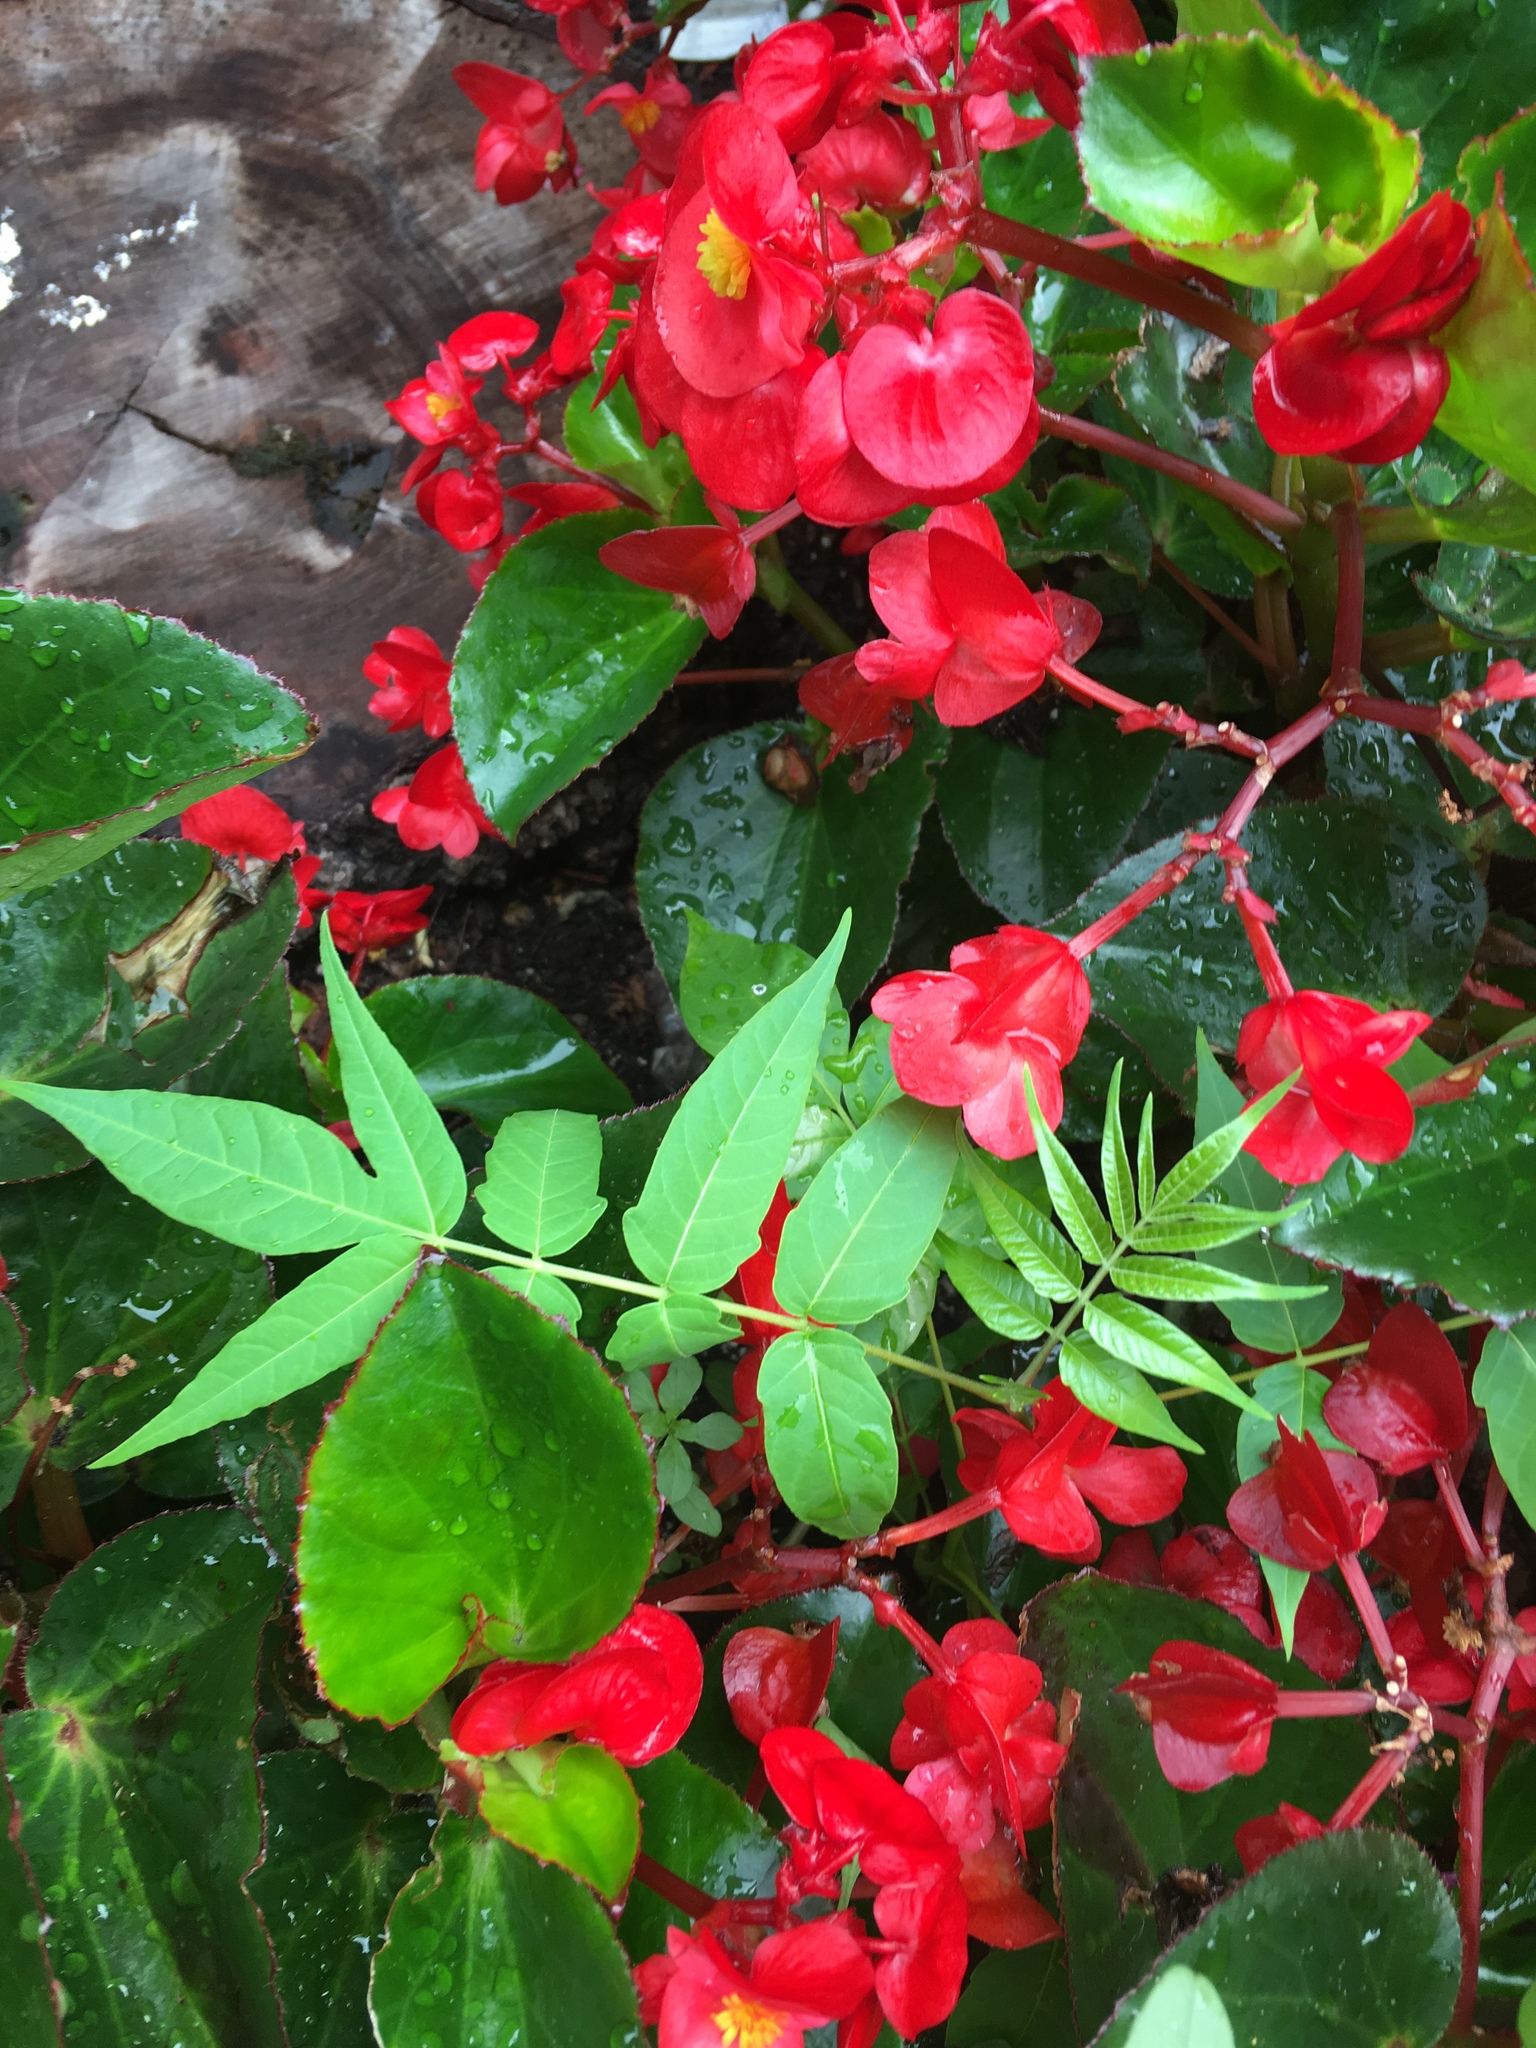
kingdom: Plantae
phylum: Tracheophyta
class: Magnoliopsida
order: Sapindales
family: Simaroubaceae
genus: Ailanthus
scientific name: Ailanthus altissima
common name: Tree-of-heaven
